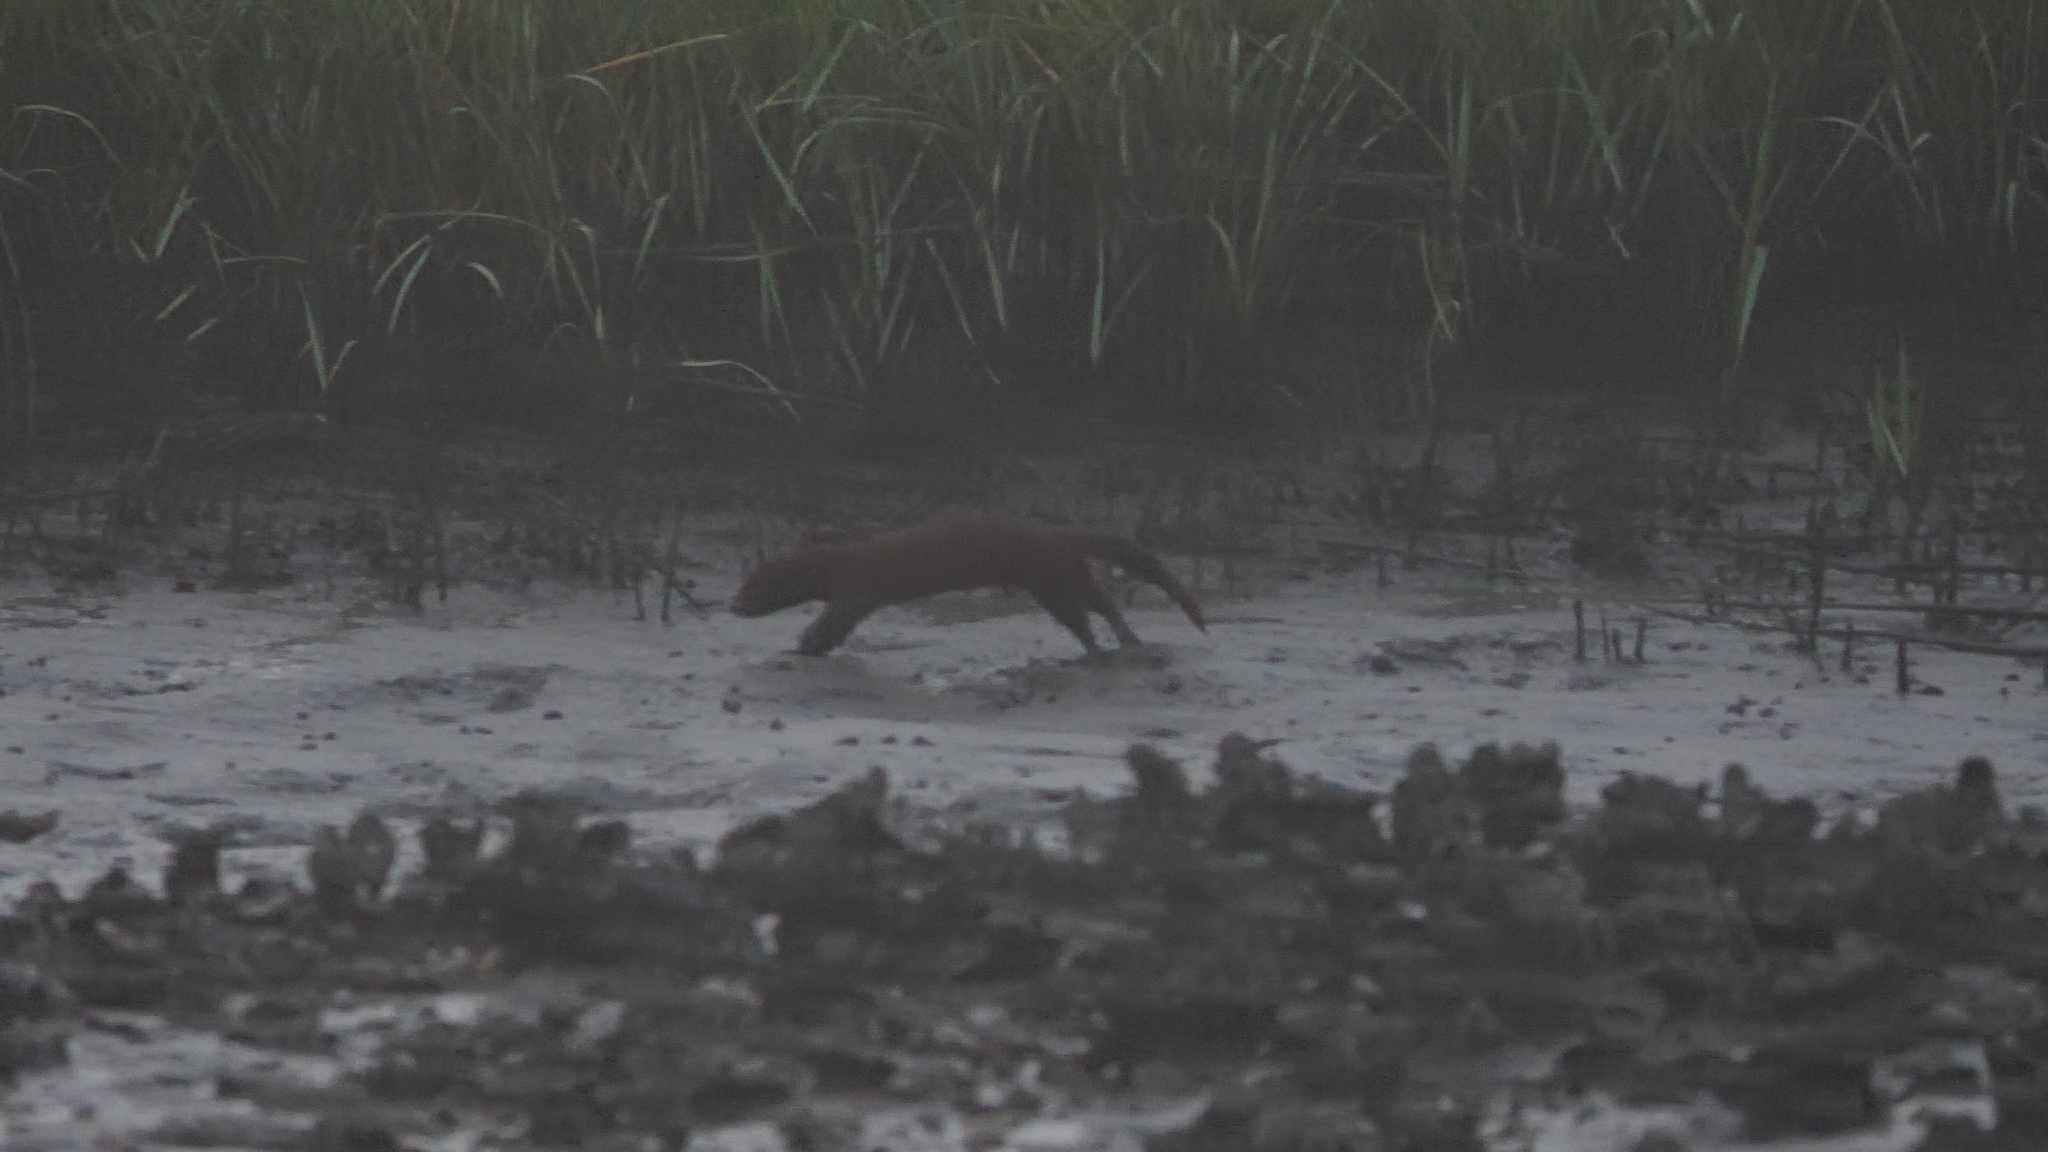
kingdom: Animalia
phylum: Chordata
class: Mammalia
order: Carnivora
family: Mustelidae
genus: Mustela
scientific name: Mustela
